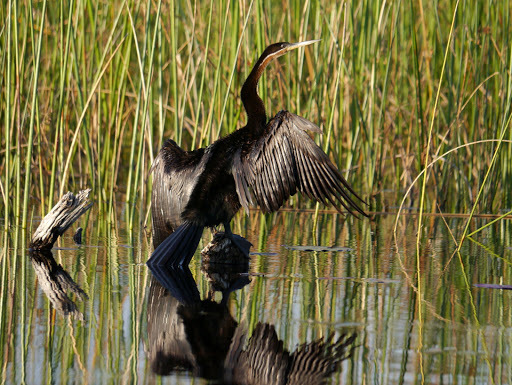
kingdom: Animalia
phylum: Chordata
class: Aves
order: Suliformes
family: Anhingidae
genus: Anhinga
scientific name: Anhinga rufa
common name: African darter
